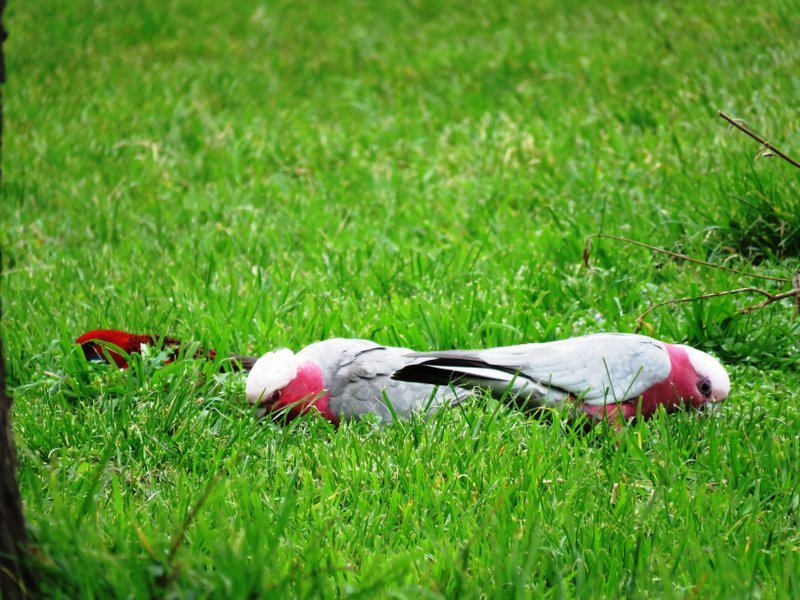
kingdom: Animalia
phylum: Chordata
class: Aves
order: Psittaciformes
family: Psittacidae
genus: Eolophus
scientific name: Eolophus roseicapilla
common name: Galah
